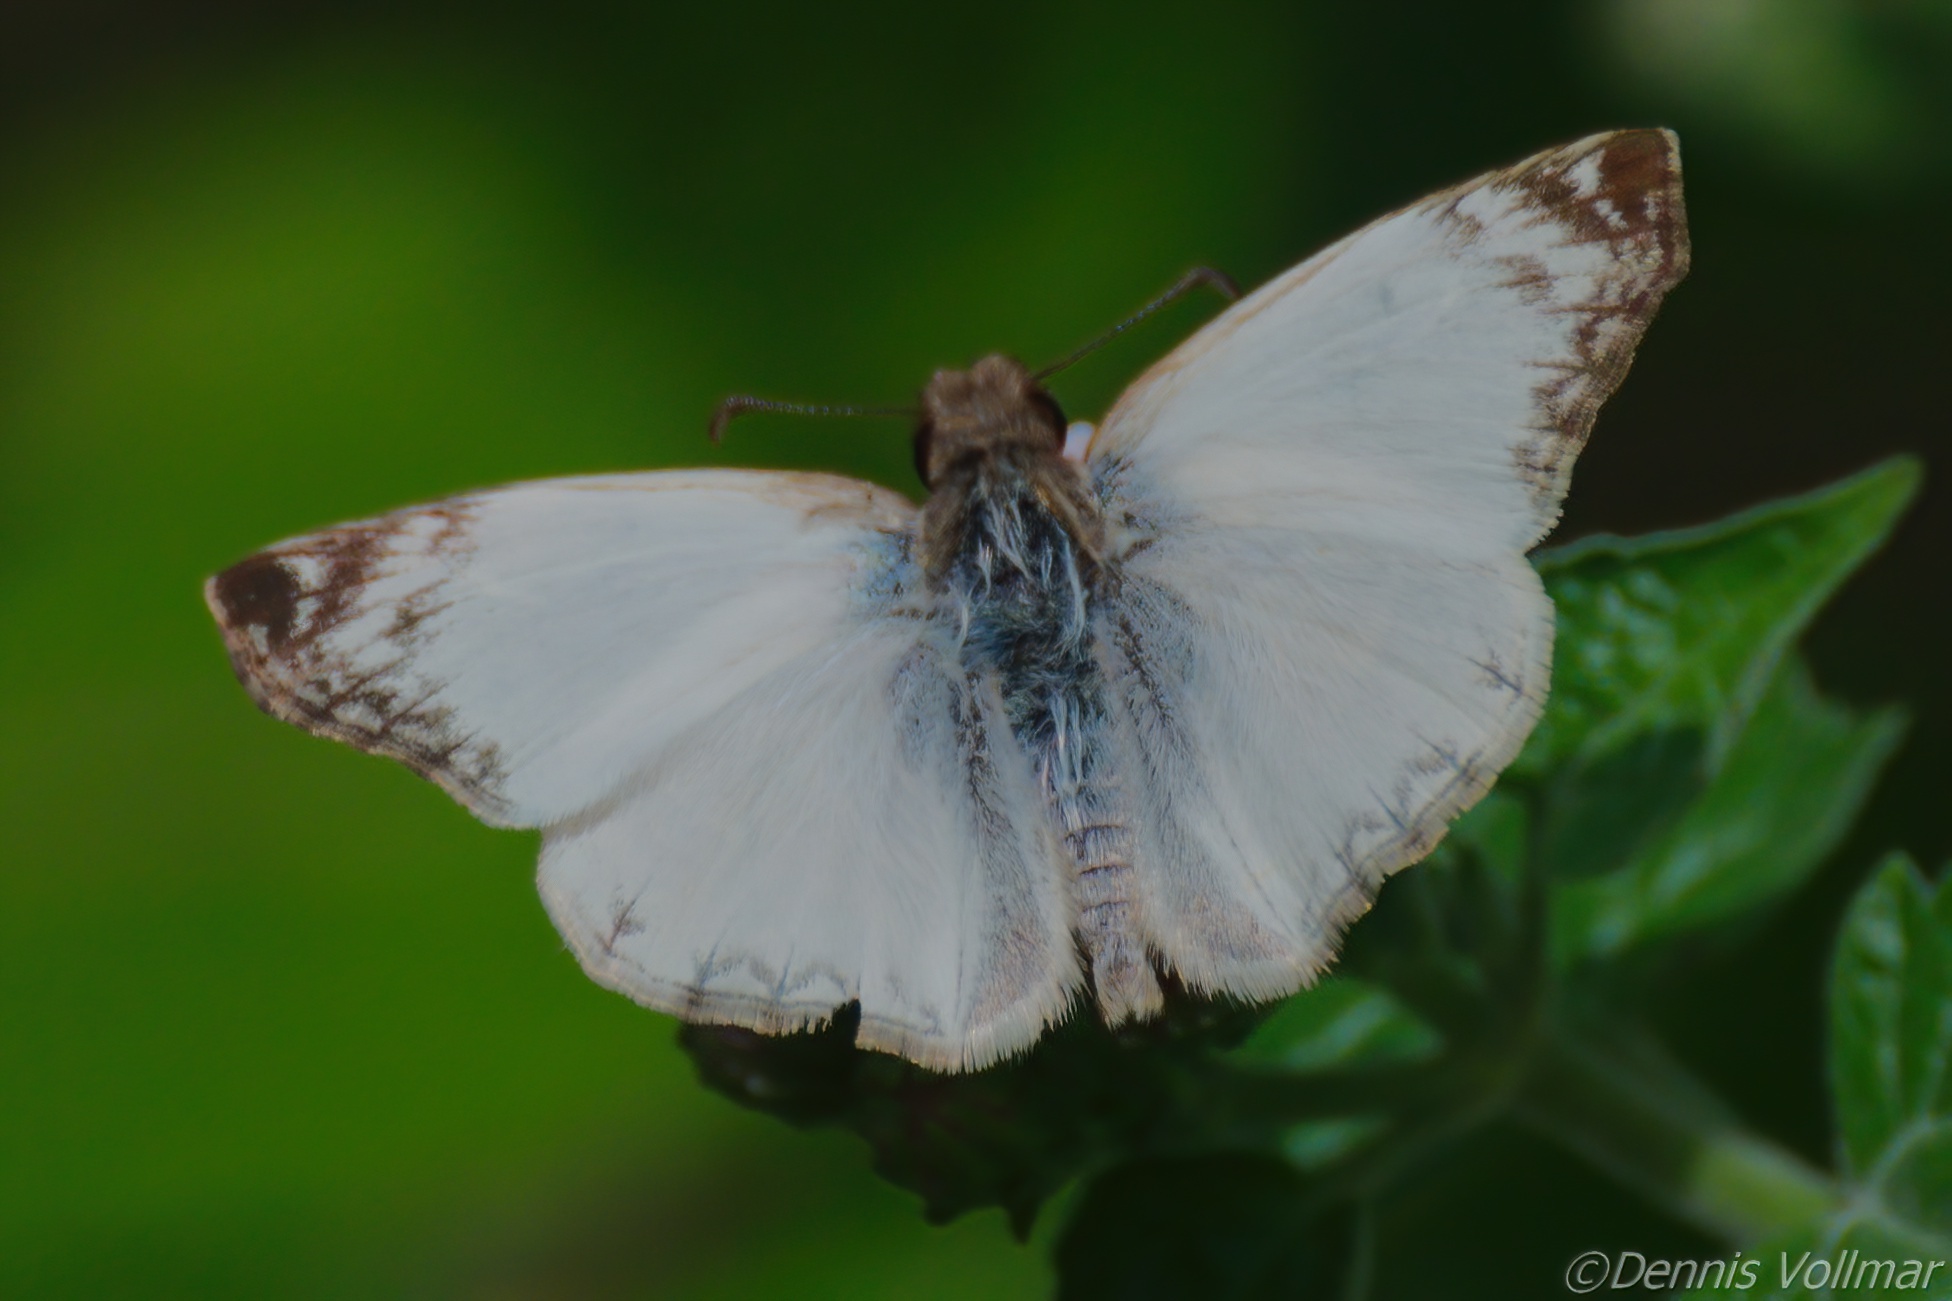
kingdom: Animalia
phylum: Arthropoda
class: Insecta
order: Lepidoptera
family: Hesperiidae
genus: Heliopetes
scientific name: Heliopetes laviana
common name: Laviana white-skipper
